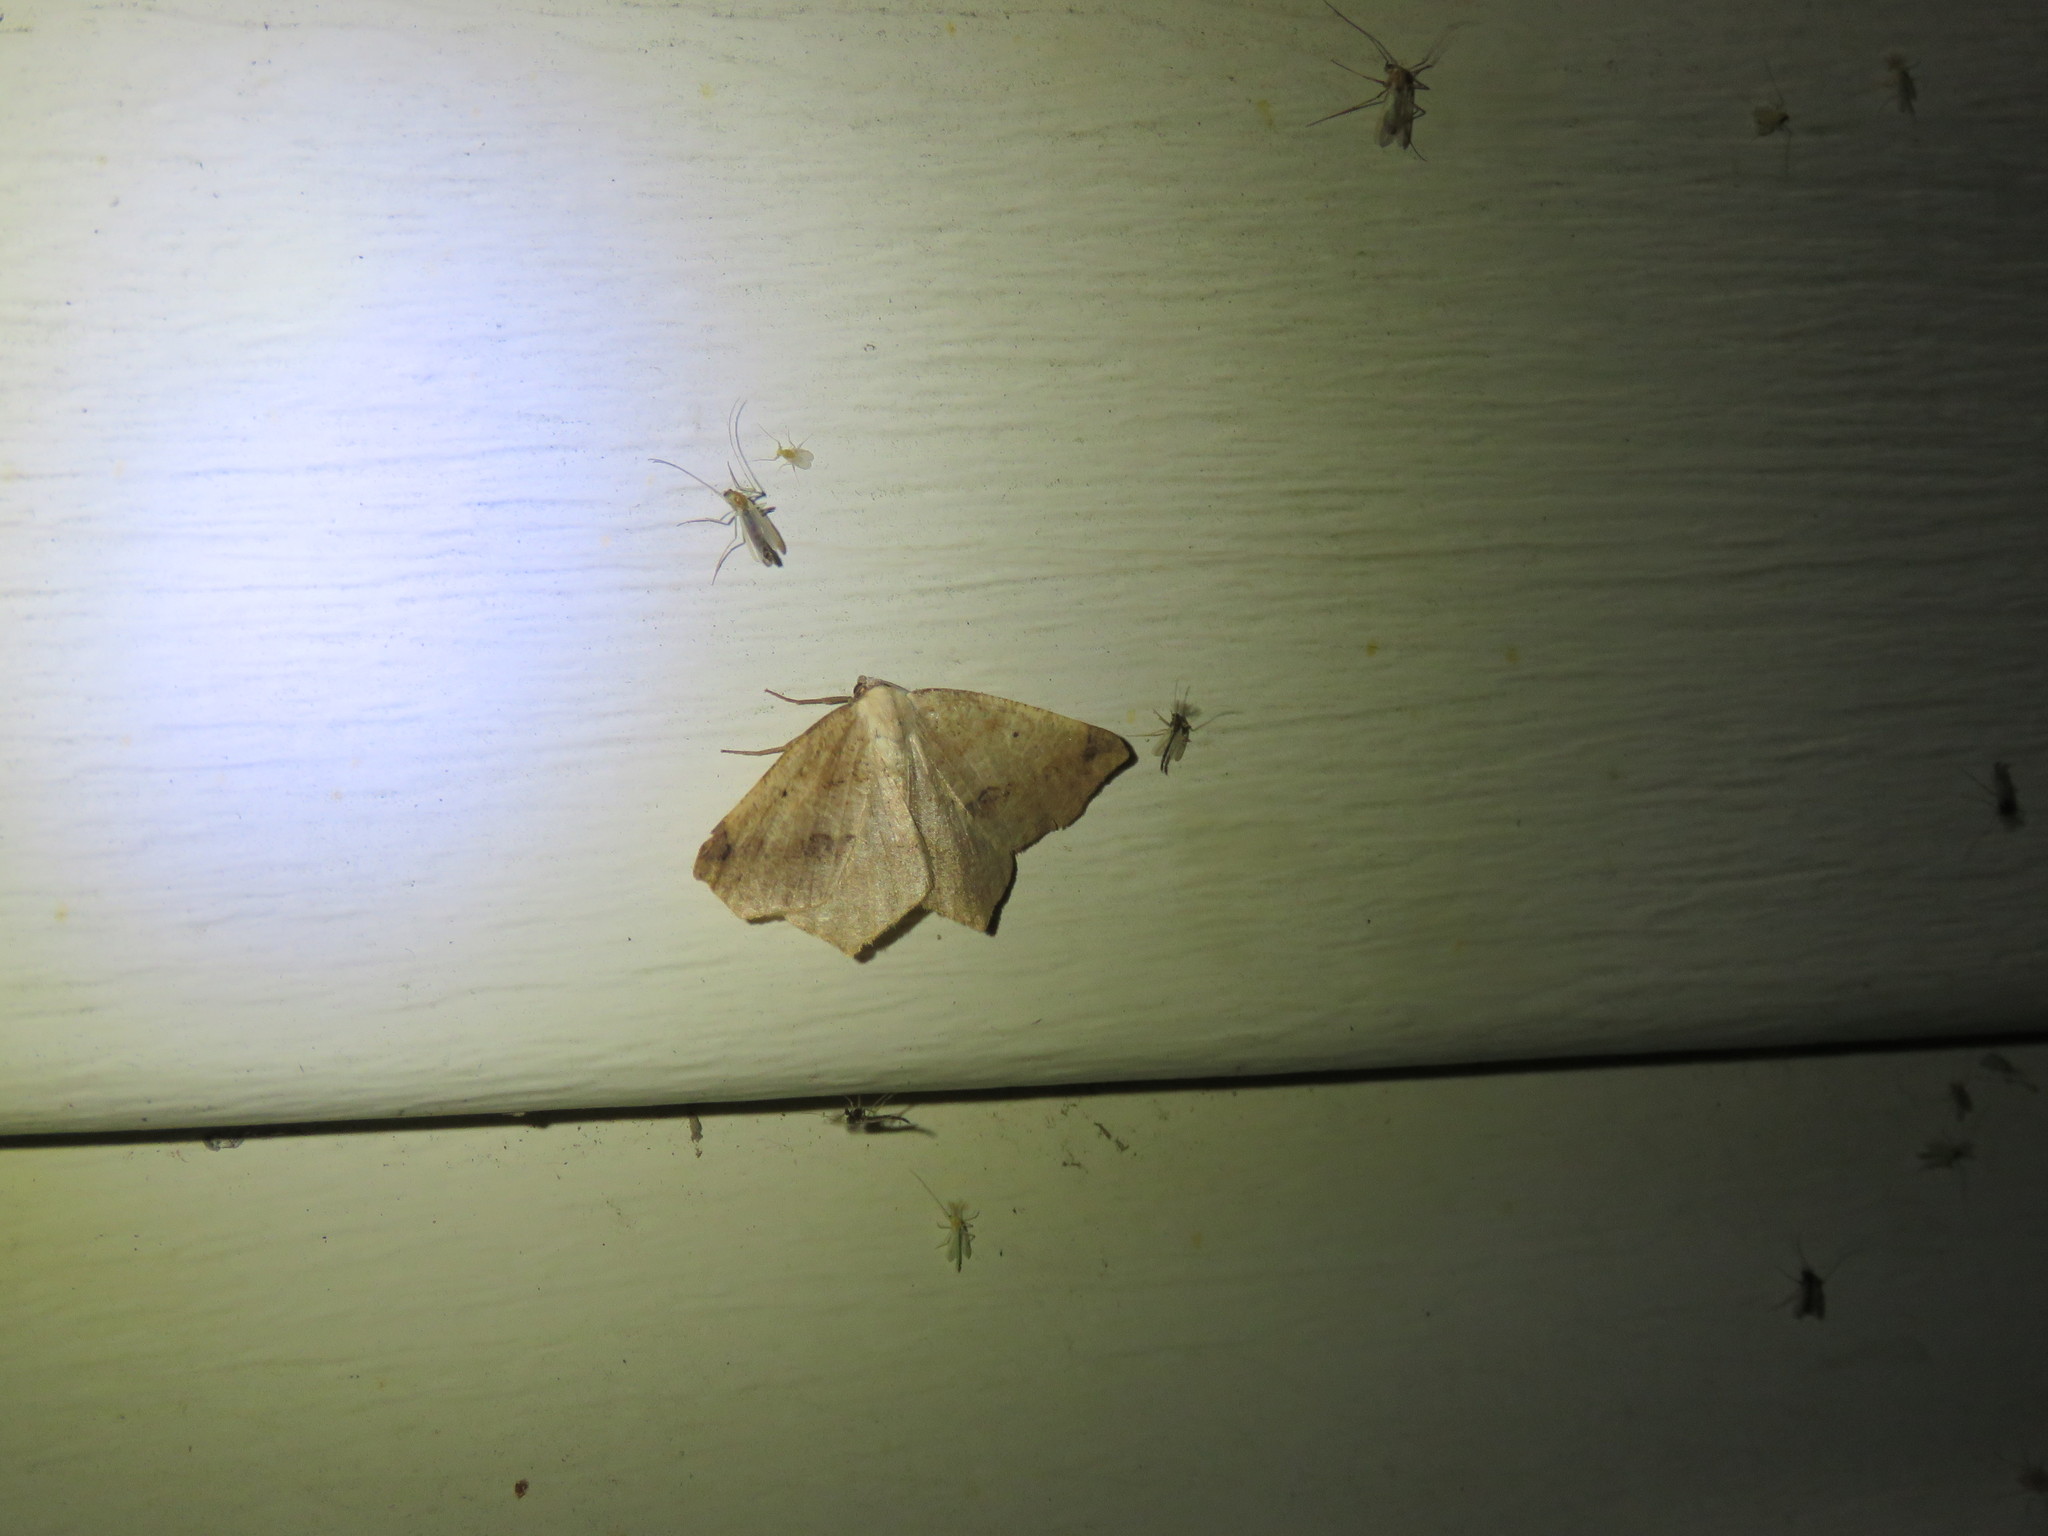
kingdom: Animalia
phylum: Arthropoda
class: Insecta
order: Lepidoptera
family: Geometridae
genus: Antepione
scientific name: Antepione thisoaria
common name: Variable antipione
